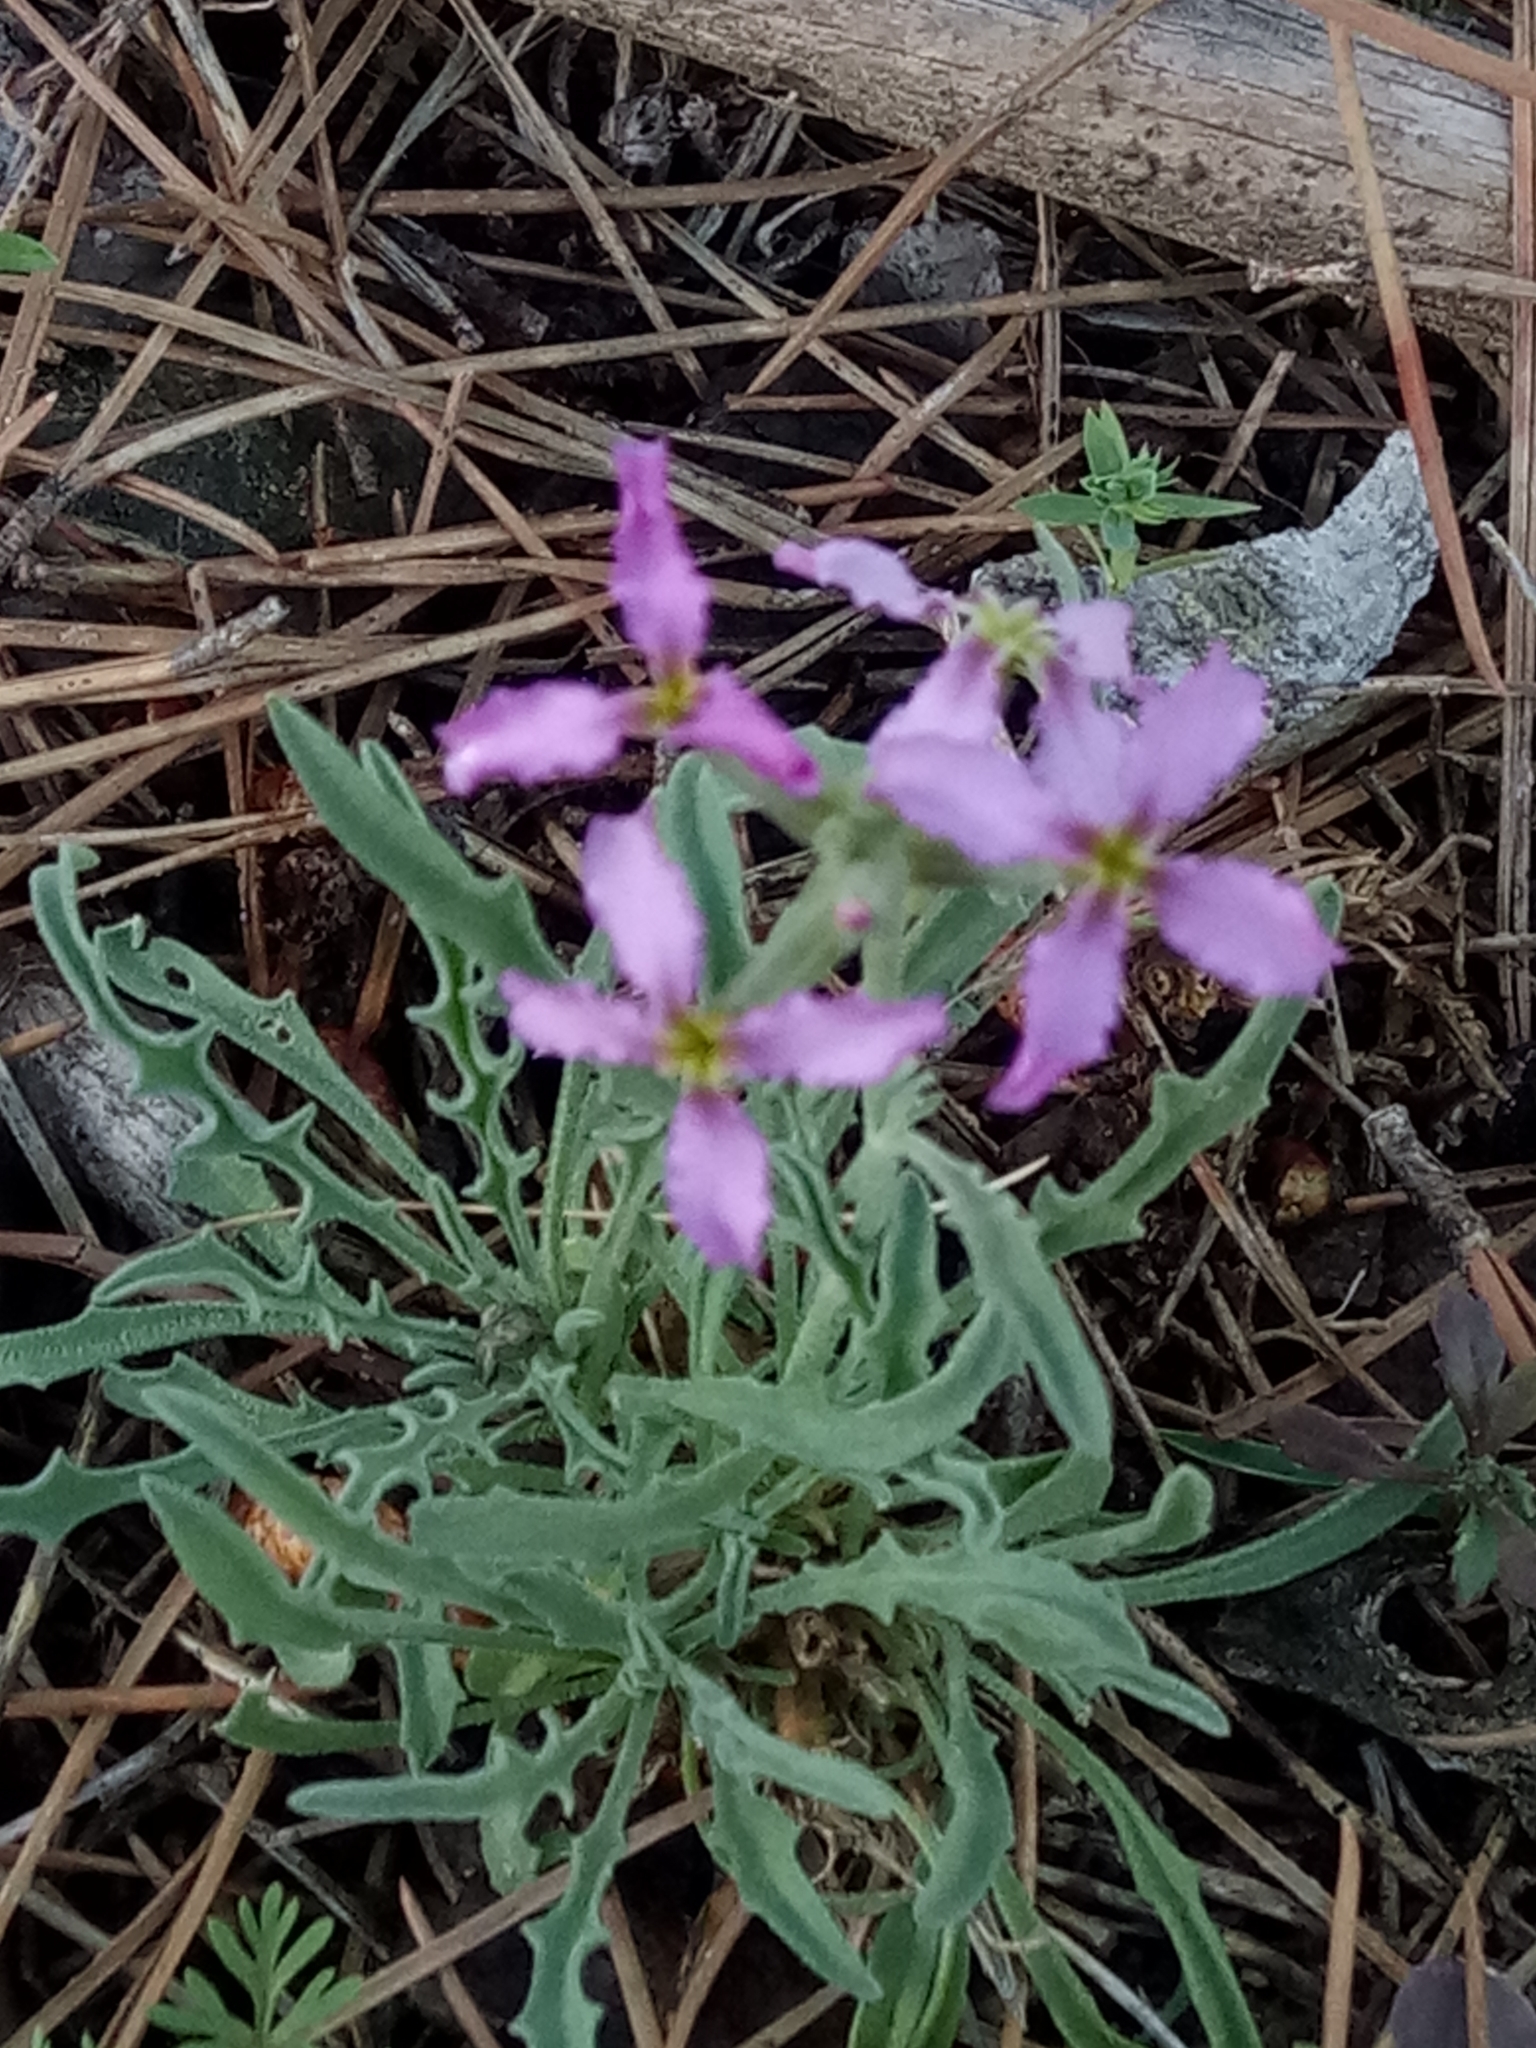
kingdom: Plantae
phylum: Tracheophyta
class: Magnoliopsida
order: Brassicales
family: Brassicaceae
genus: Matthiola
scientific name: Matthiola fruticulosa
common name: Sad stock
